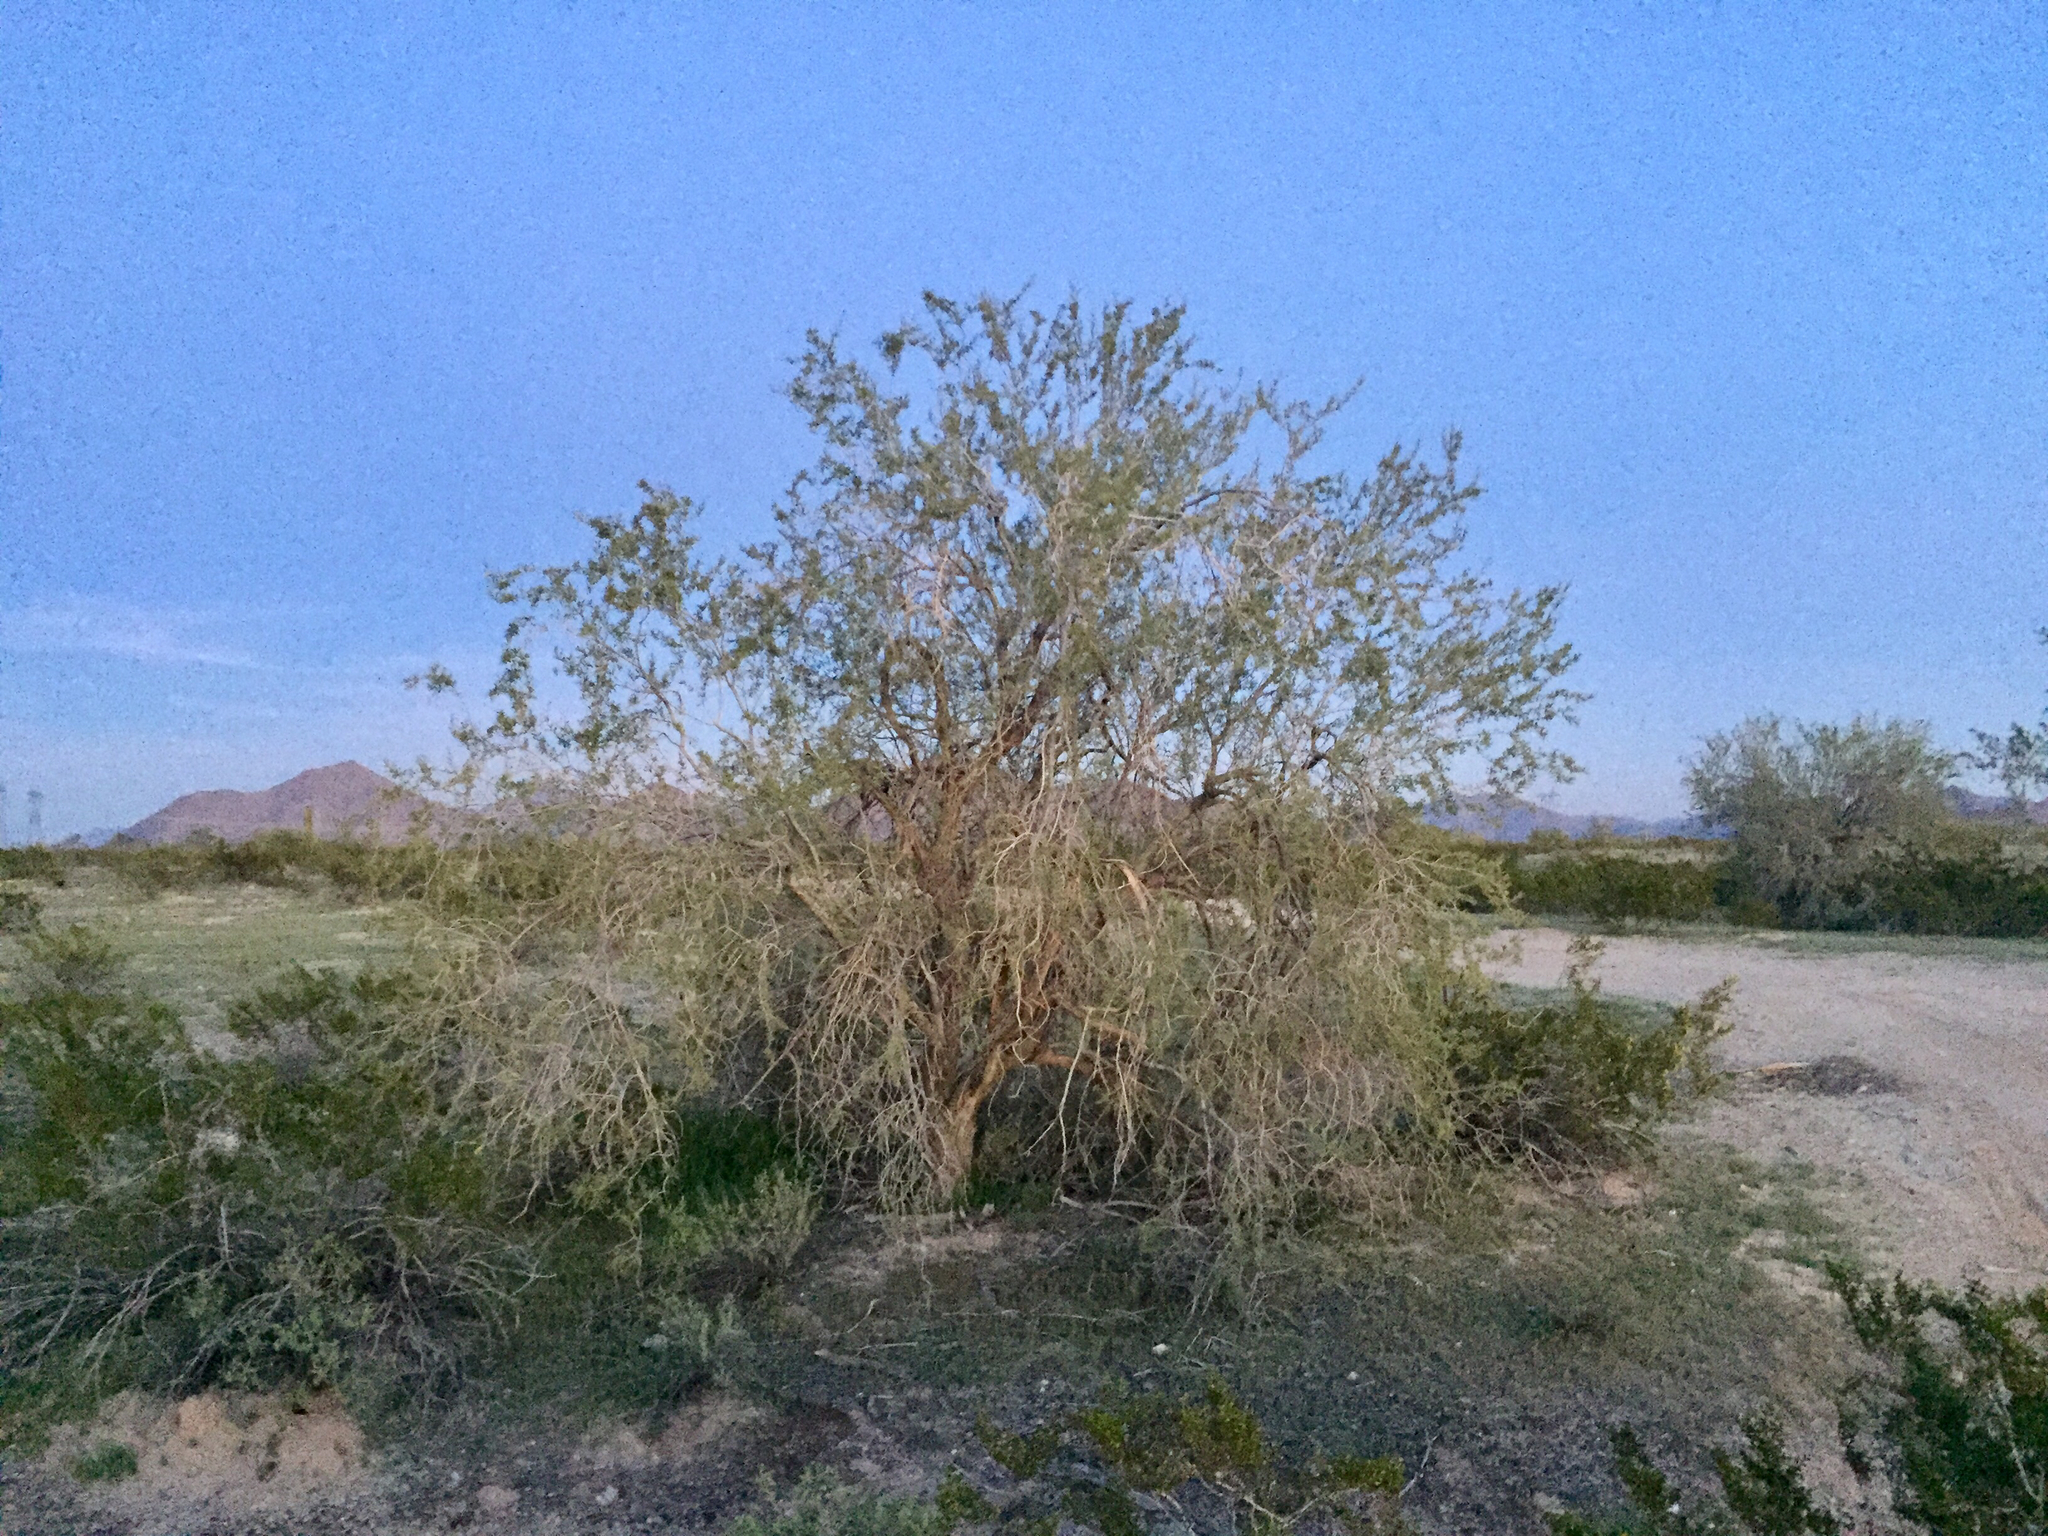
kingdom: Plantae
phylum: Tracheophyta
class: Magnoliopsida
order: Fabales
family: Fabaceae
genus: Olneya
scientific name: Olneya tesota
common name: Desert ironwood
